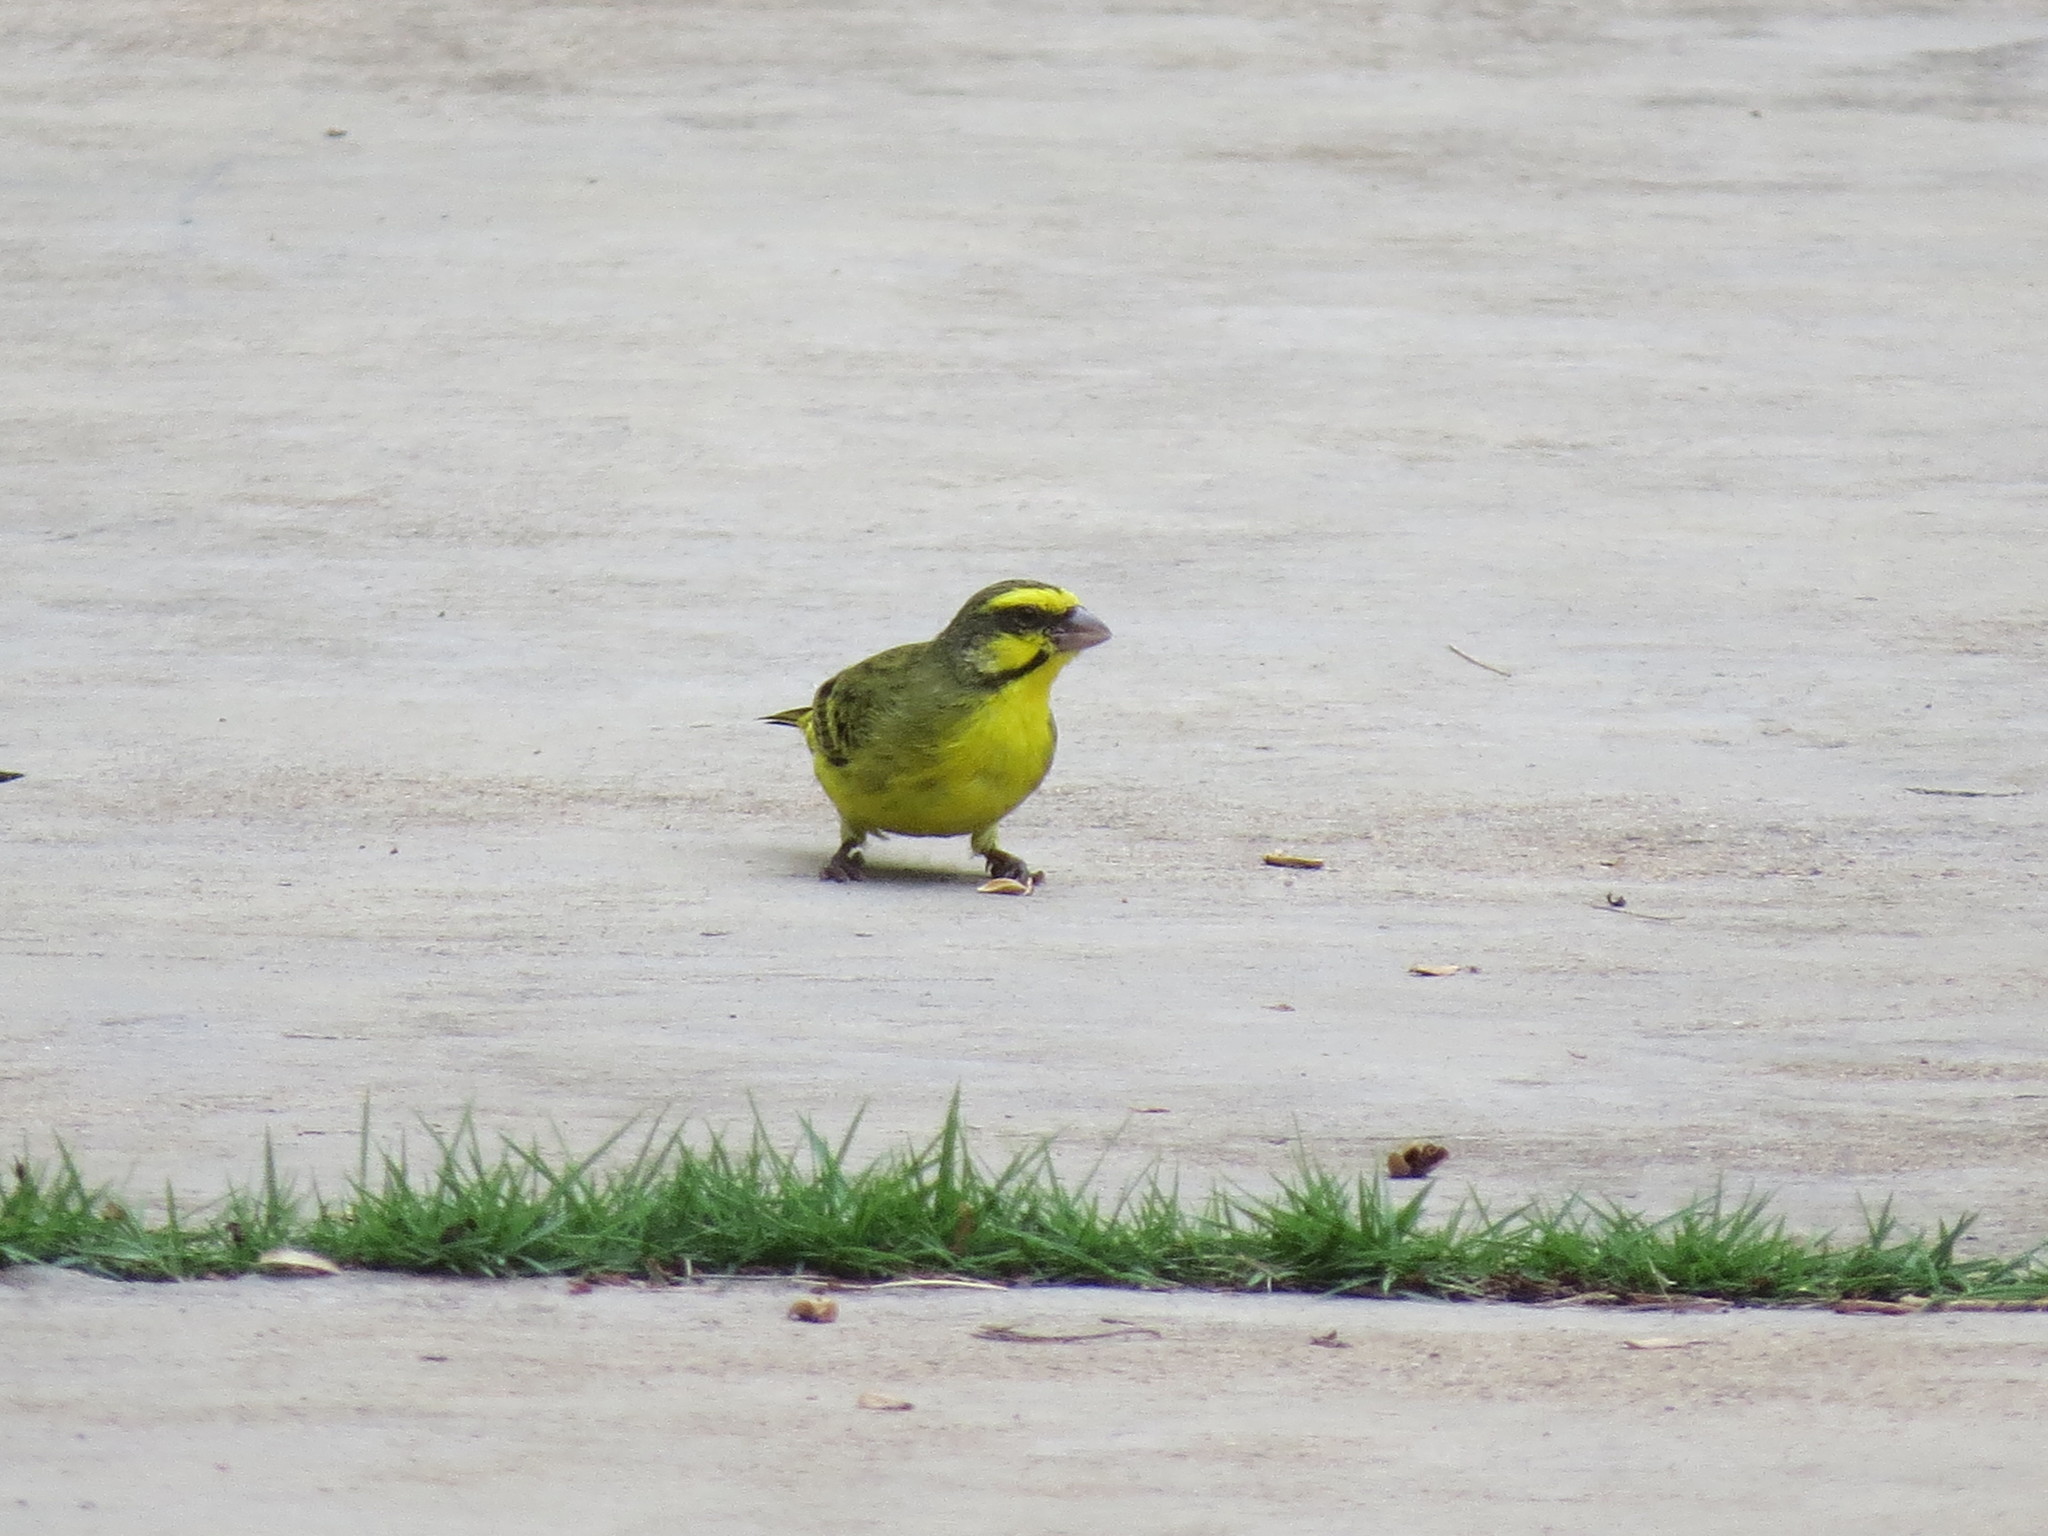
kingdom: Animalia
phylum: Chordata
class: Aves
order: Passeriformes
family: Fringillidae
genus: Crithagra
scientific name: Crithagra mozambica
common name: Yellow-fronted canary
